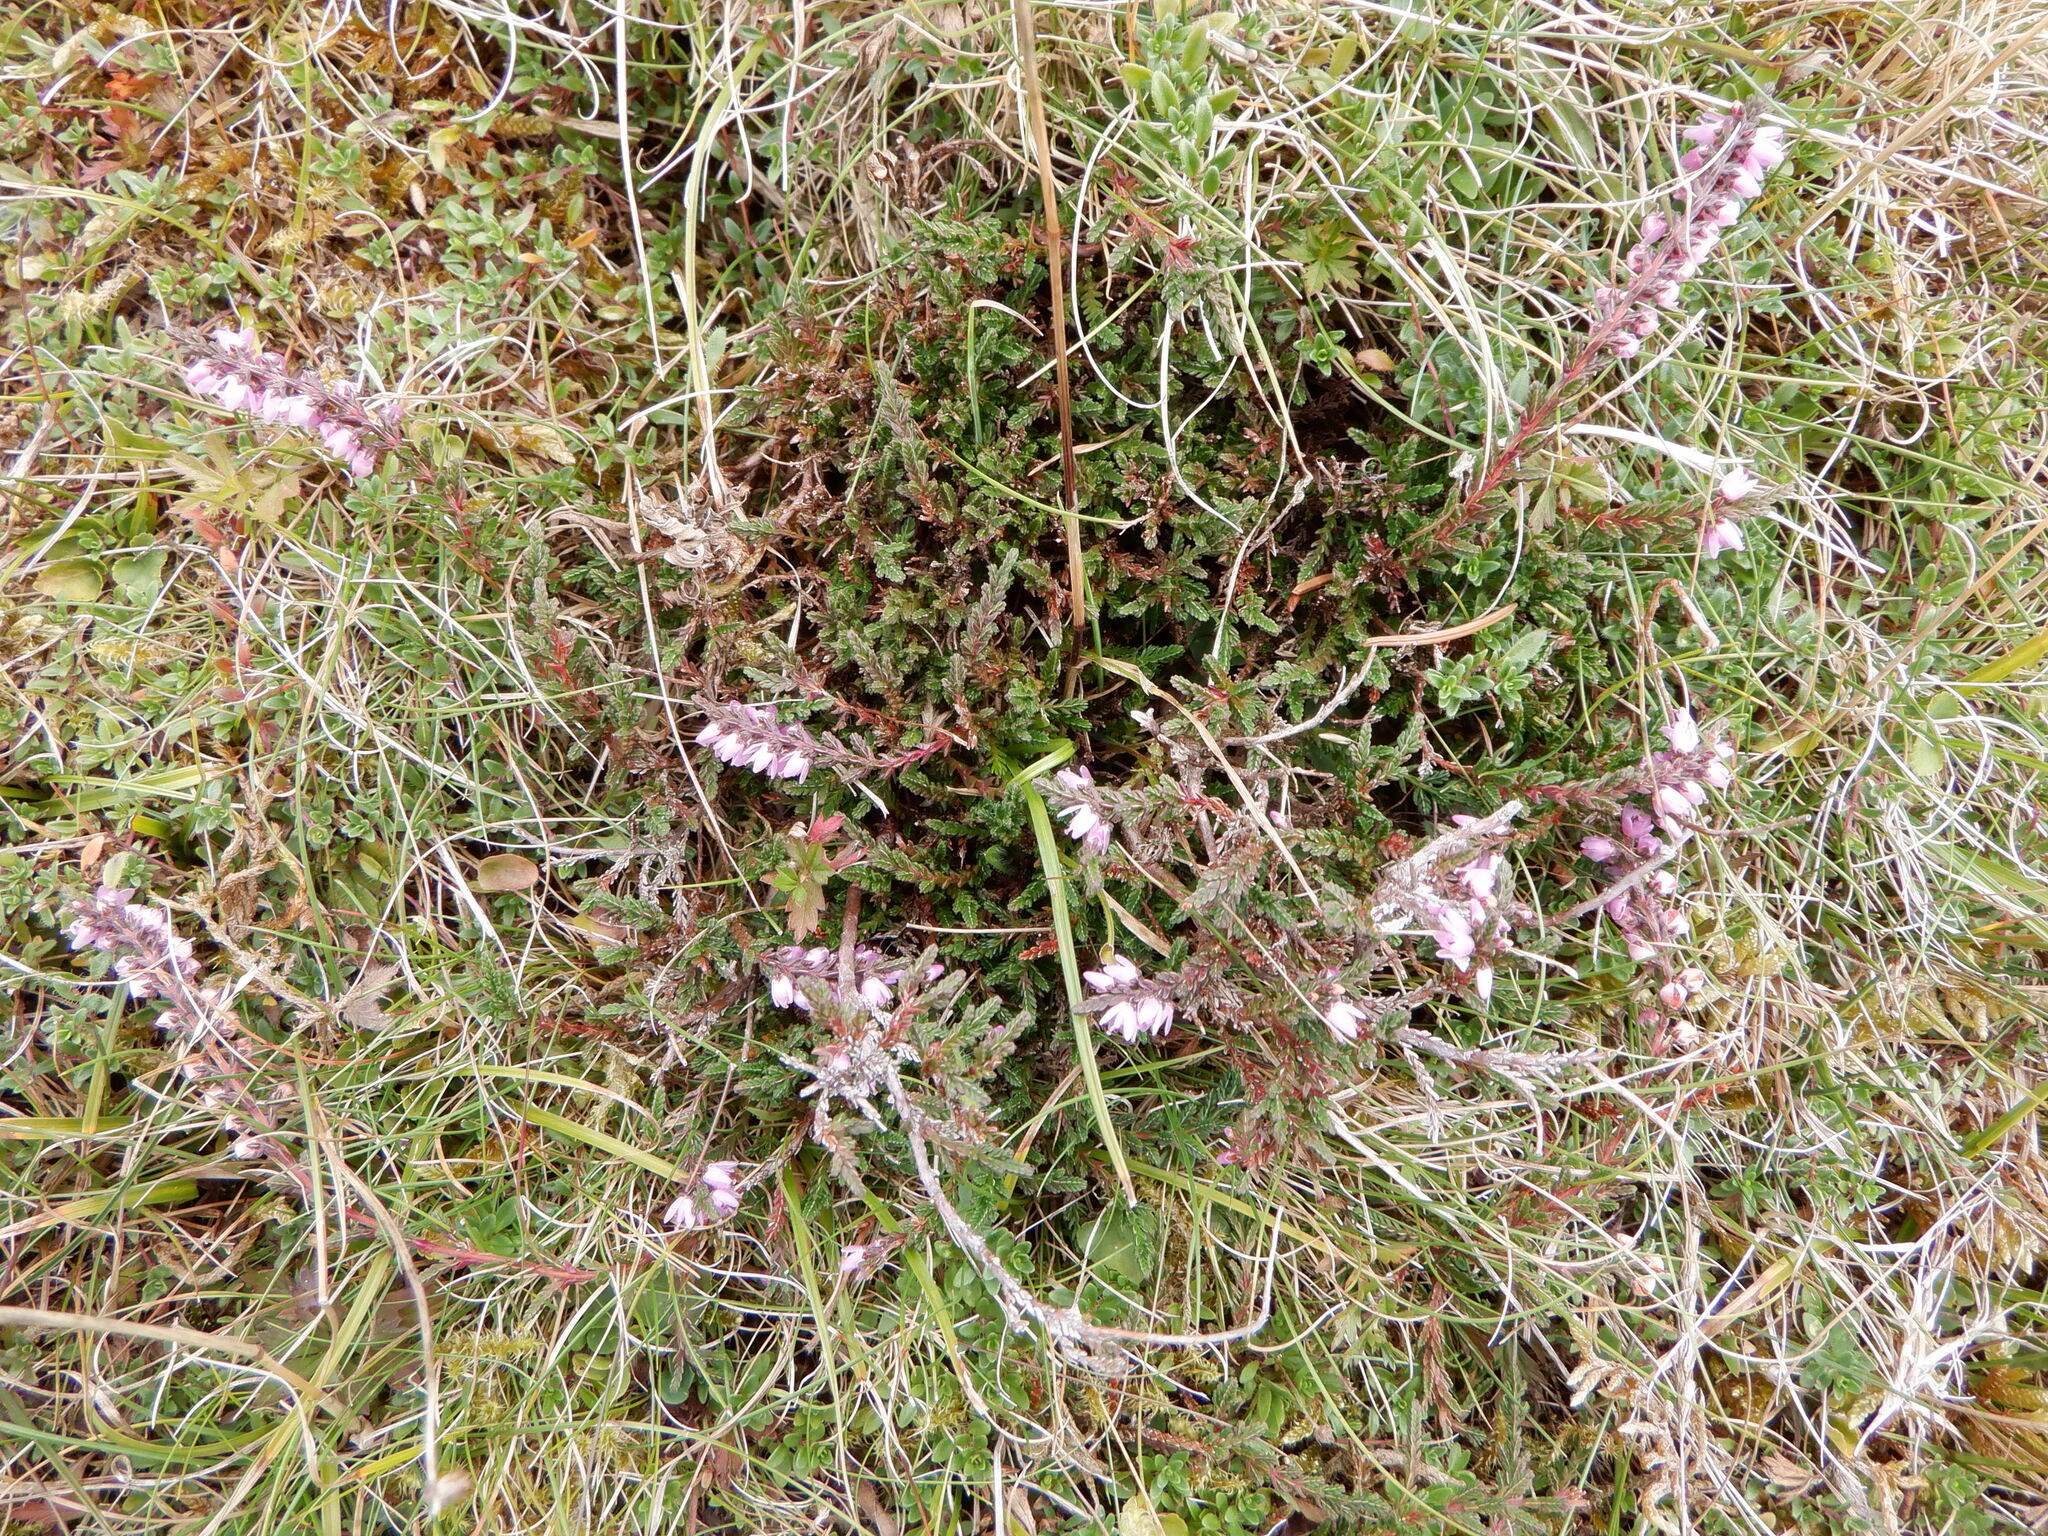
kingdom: Plantae
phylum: Tracheophyta
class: Magnoliopsida
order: Ericales
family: Ericaceae
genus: Calluna
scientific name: Calluna vulgaris
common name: Heather
